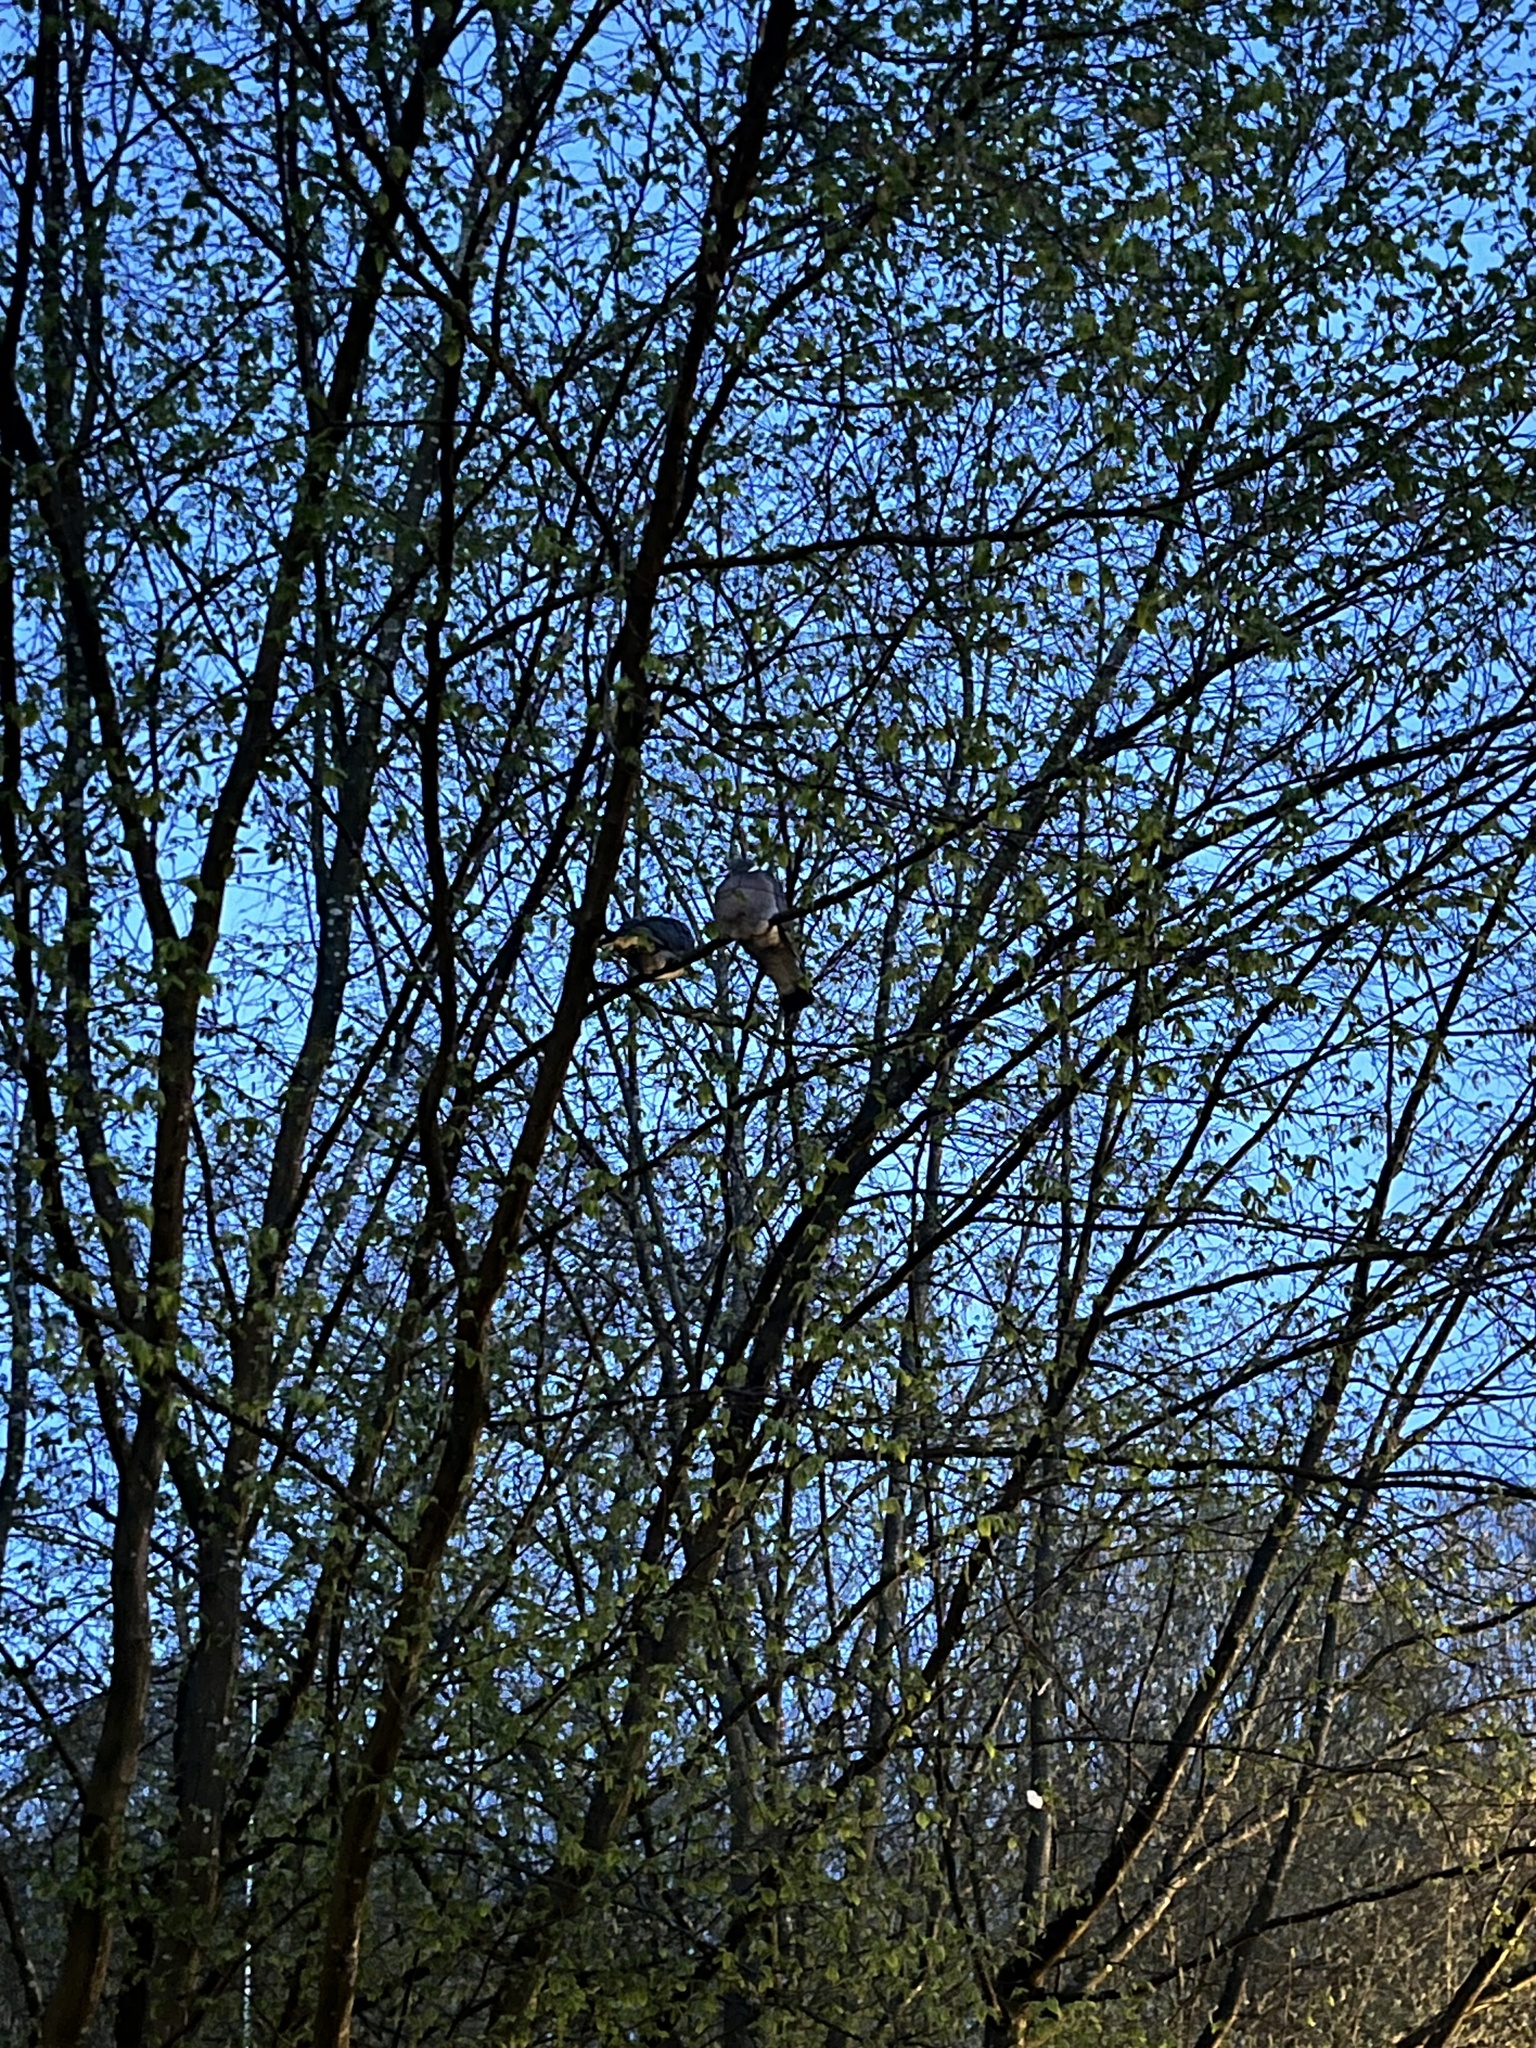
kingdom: Animalia
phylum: Chordata
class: Aves
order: Columbiformes
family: Columbidae
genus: Columba
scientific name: Columba palumbus
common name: Common wood pigeon
